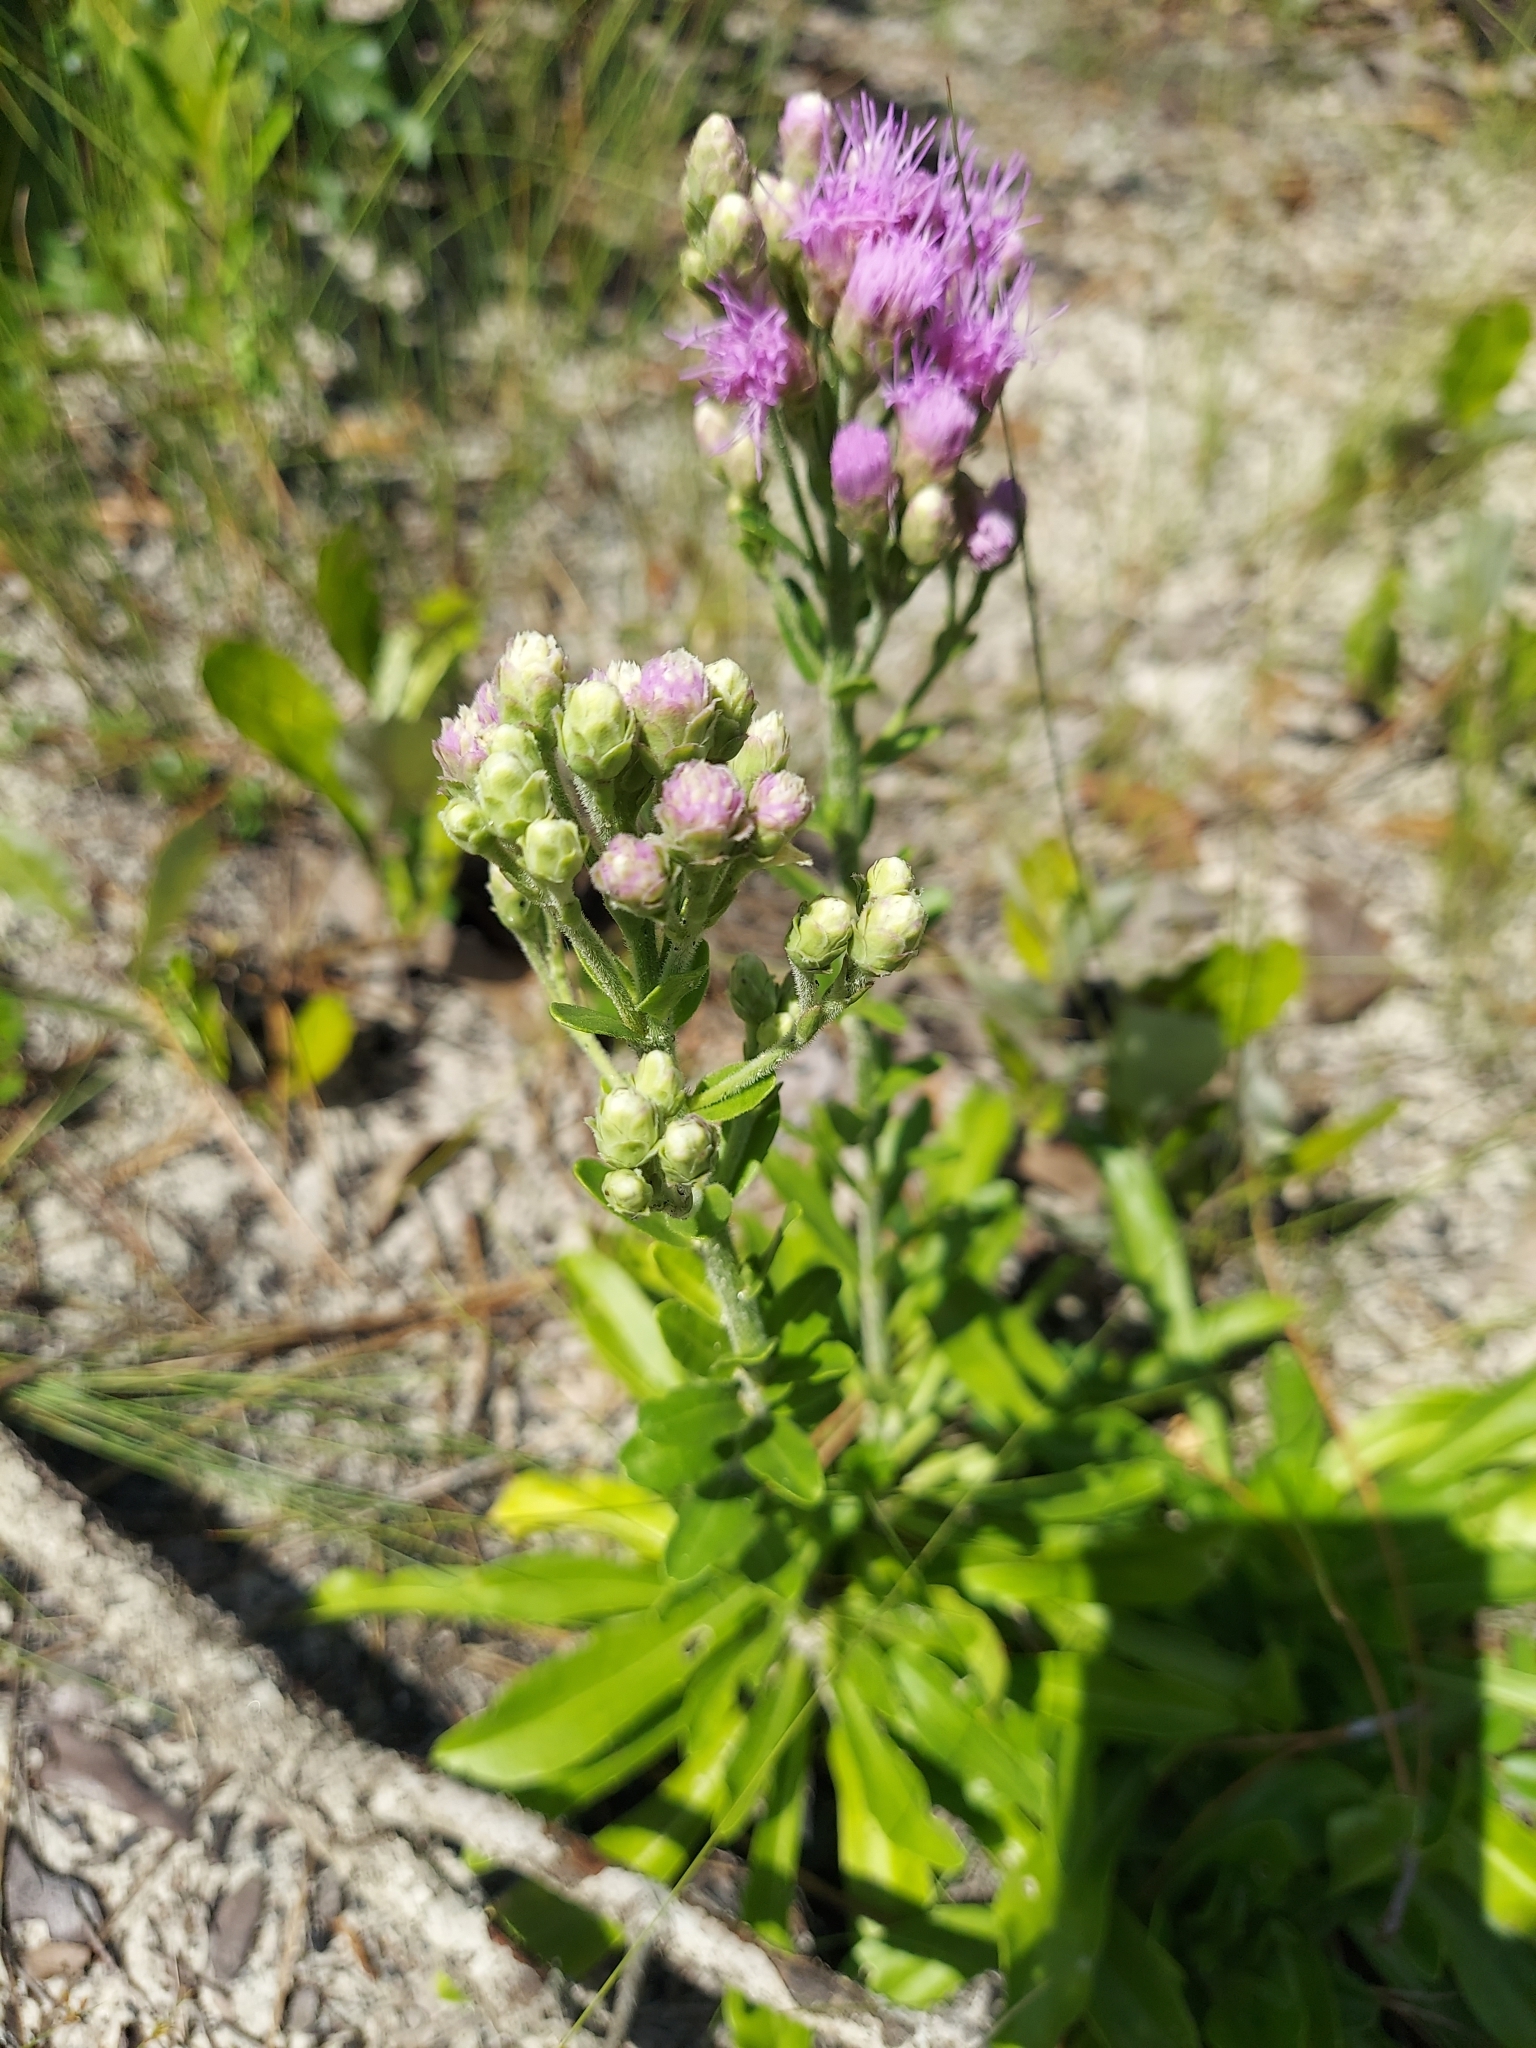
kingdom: Plantae
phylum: Tracheophyta
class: Magnoliopsida
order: Asterales
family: Asteraceae
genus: Carphephorus
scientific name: Carphephorus corymbosus
